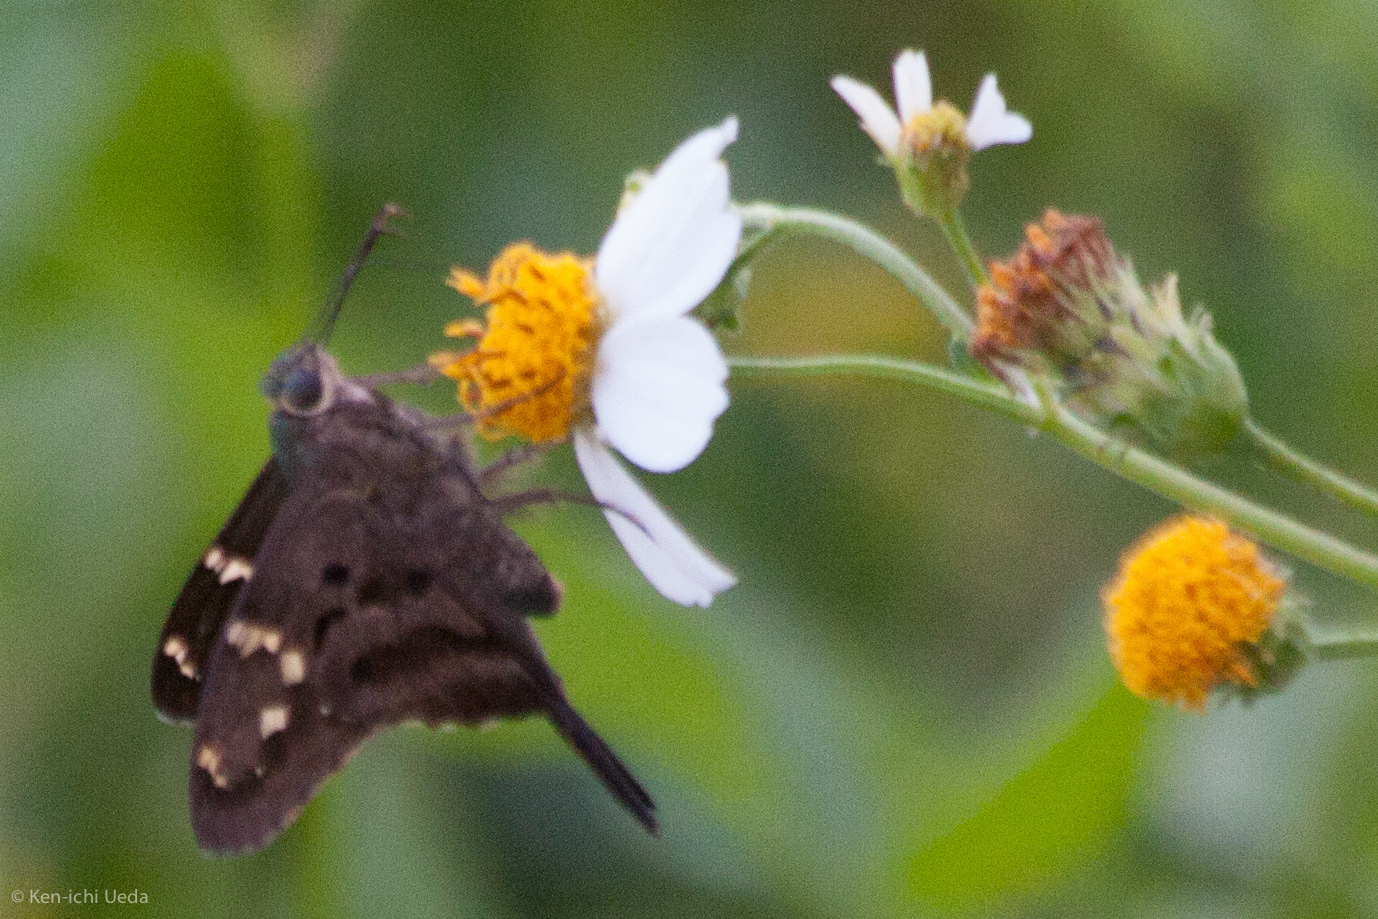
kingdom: Animalia
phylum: Arthropoda
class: Insecta
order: Lepidoptera
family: Hesperiidae
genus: Urbanus
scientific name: Urbanus proteus
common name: Long-tailed skipper
